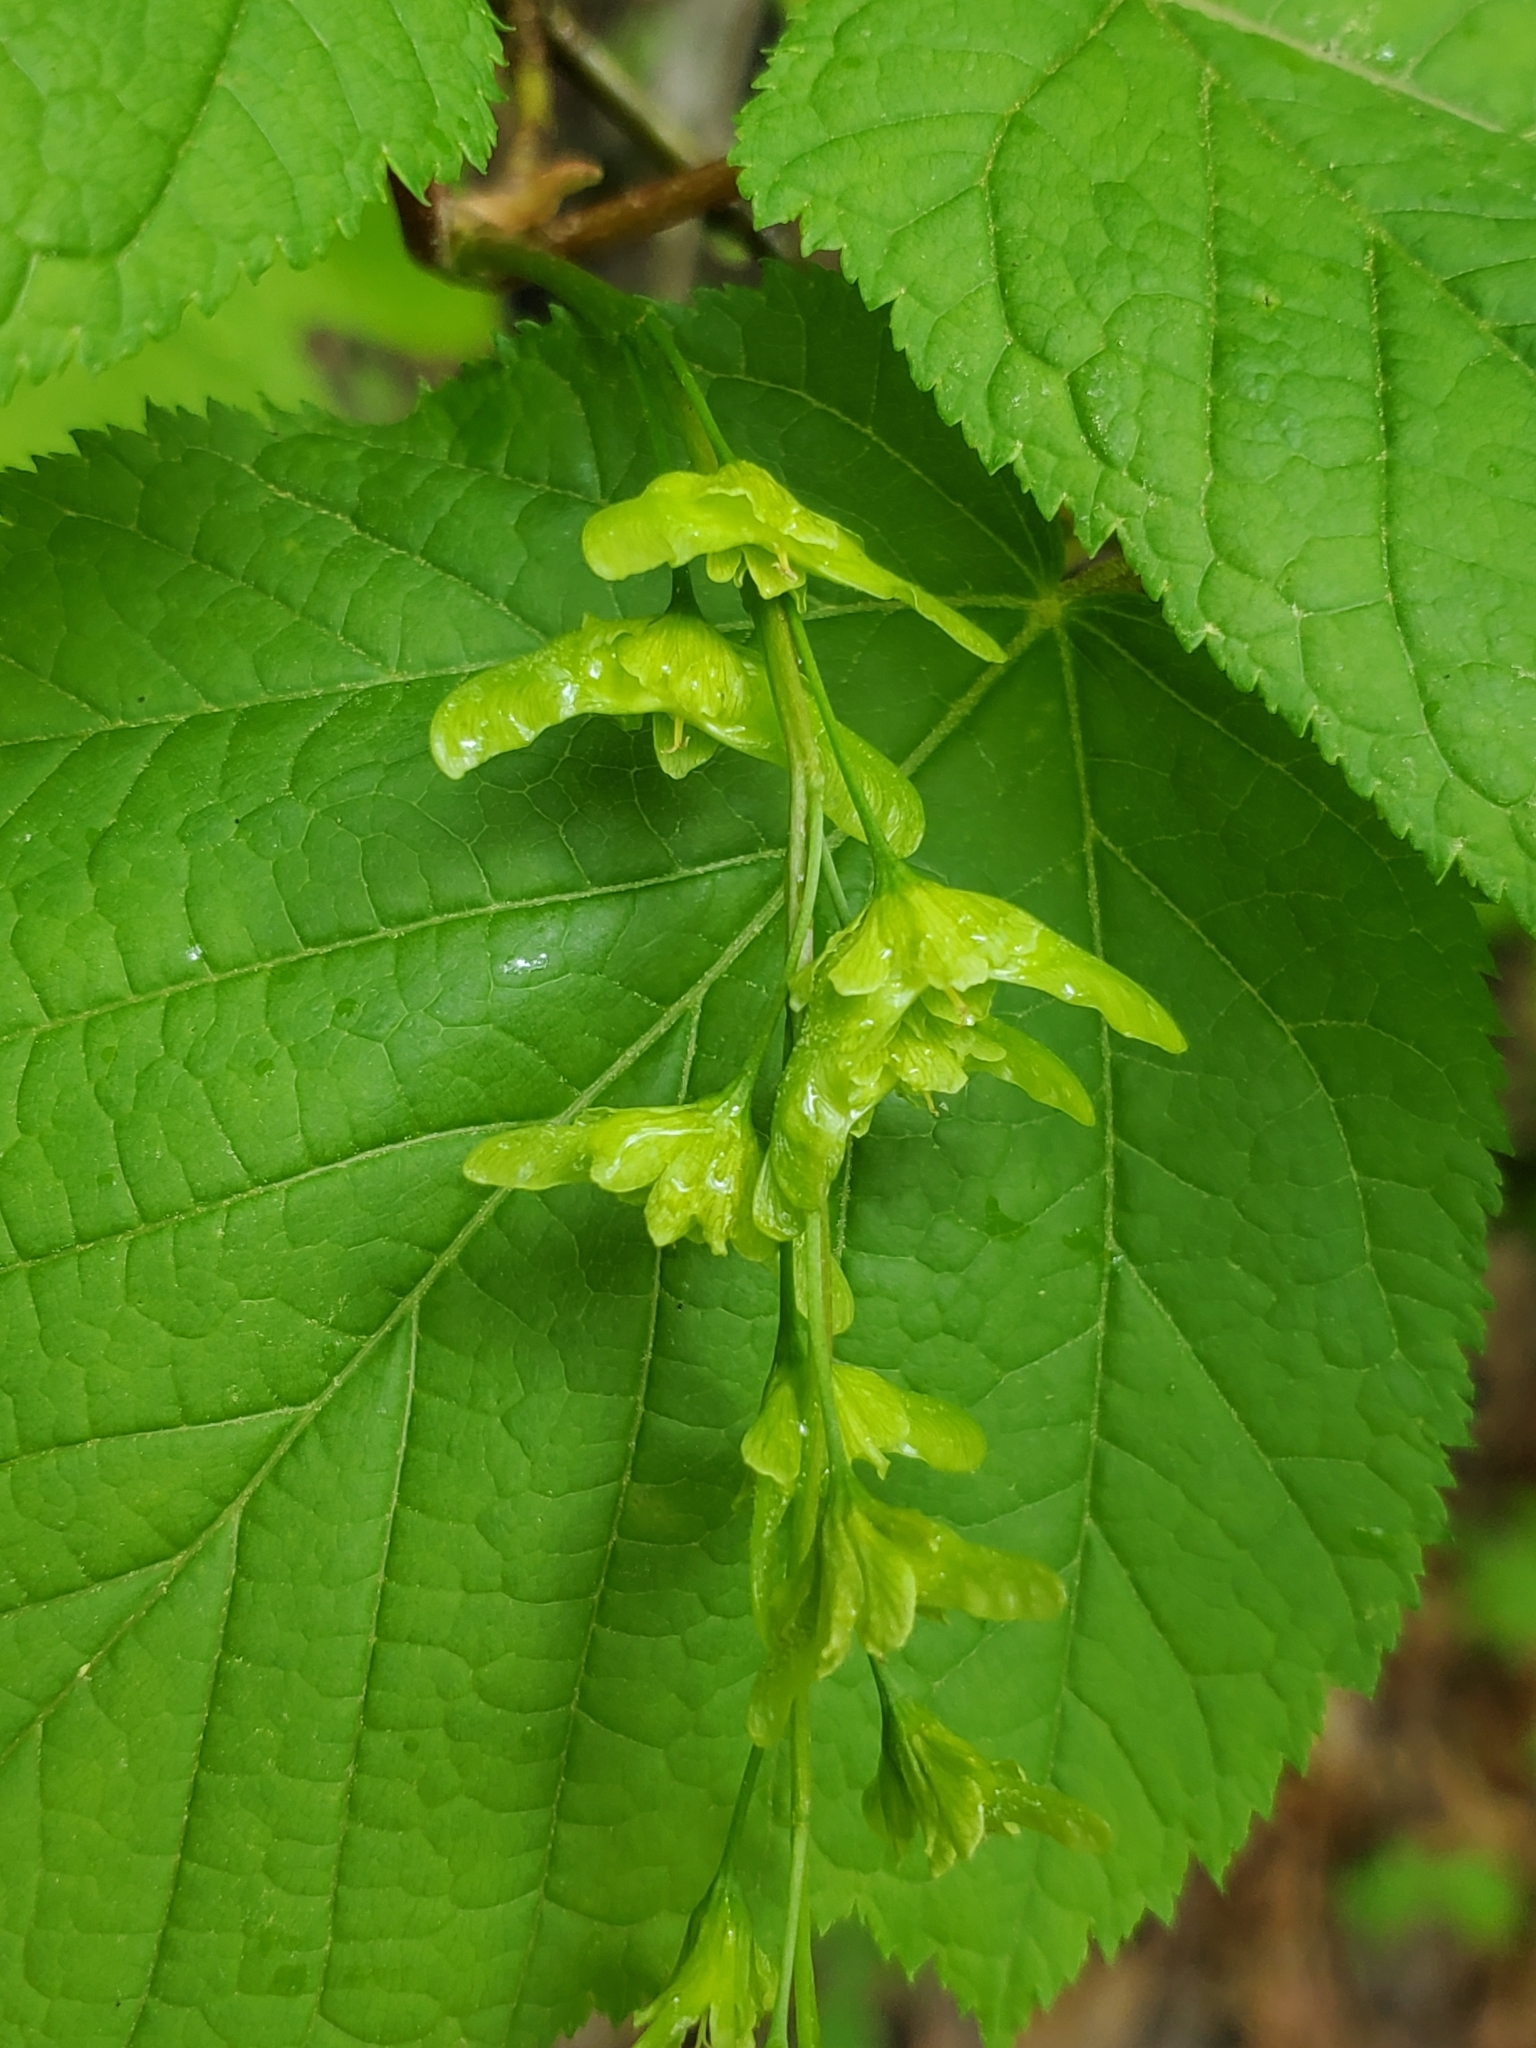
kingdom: Plantae
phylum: Tracheophyta
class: Magnoliopsida
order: Sapindales
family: Sapindaceae
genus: Acer
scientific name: Acer pensylvanicum
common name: Moosewood
